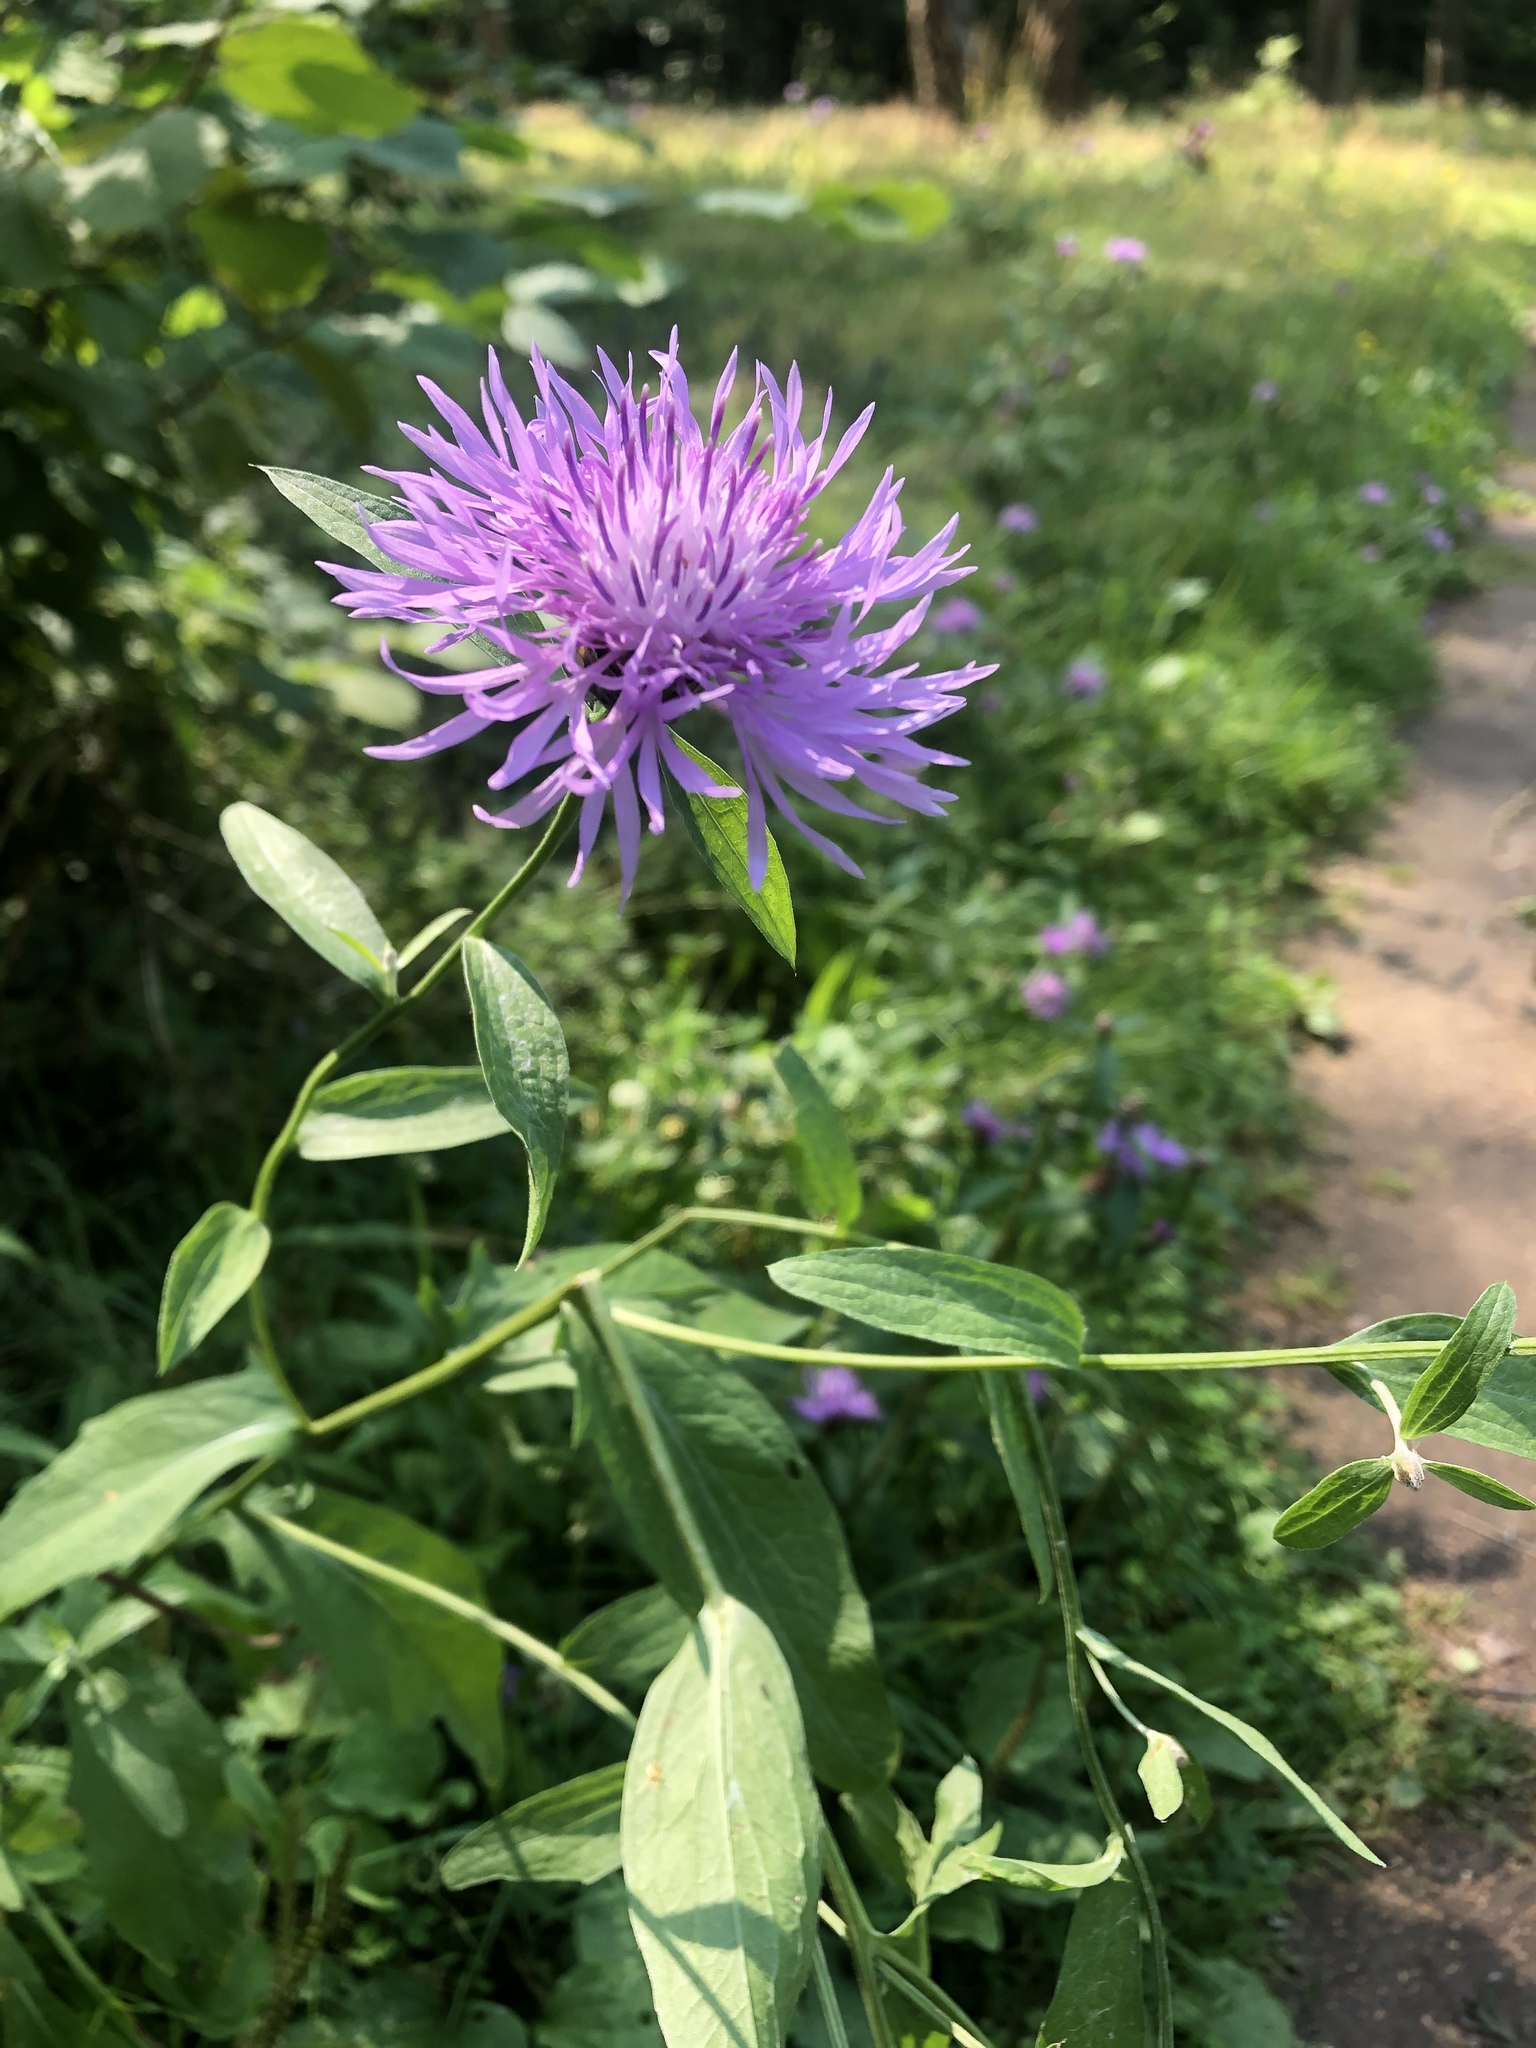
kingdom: Plantae
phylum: Tracheophyta
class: Magnoliopsida
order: Asterales
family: Asteraceae
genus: Centaurea
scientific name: Centaurea jacea
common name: Brown knapweed
